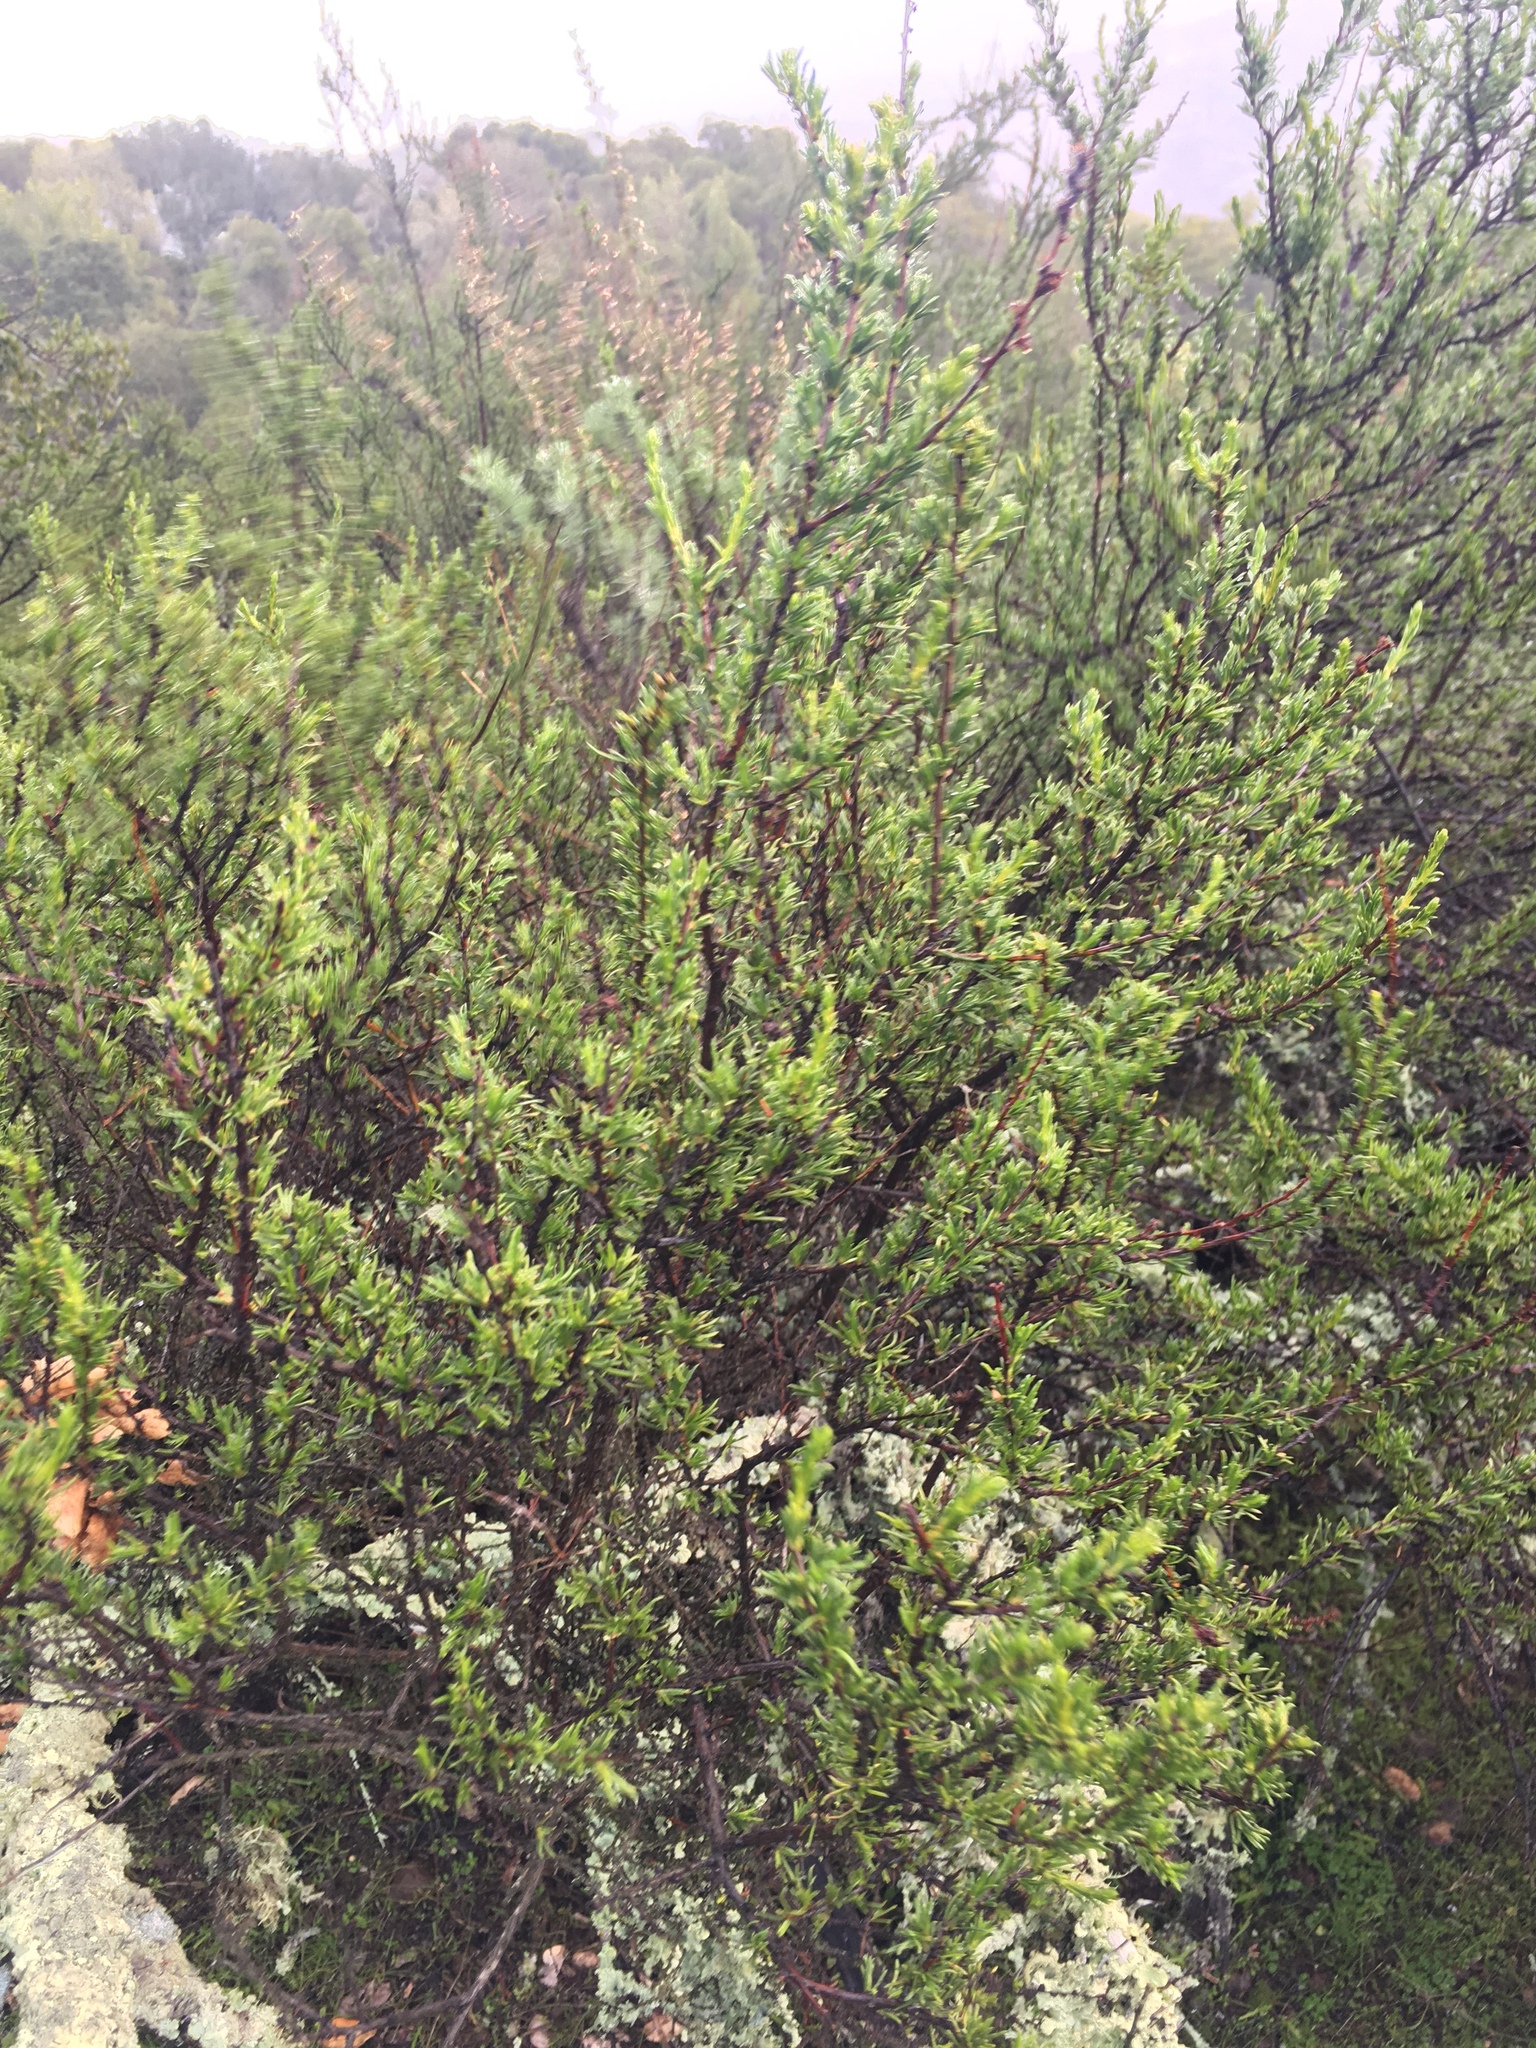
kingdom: Plantae
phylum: Tracheophyta
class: Magnoliopsida
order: Rosales
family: Rosaceae
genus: Adenostoma
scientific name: Adenostoma fasciculatum
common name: Chamise
